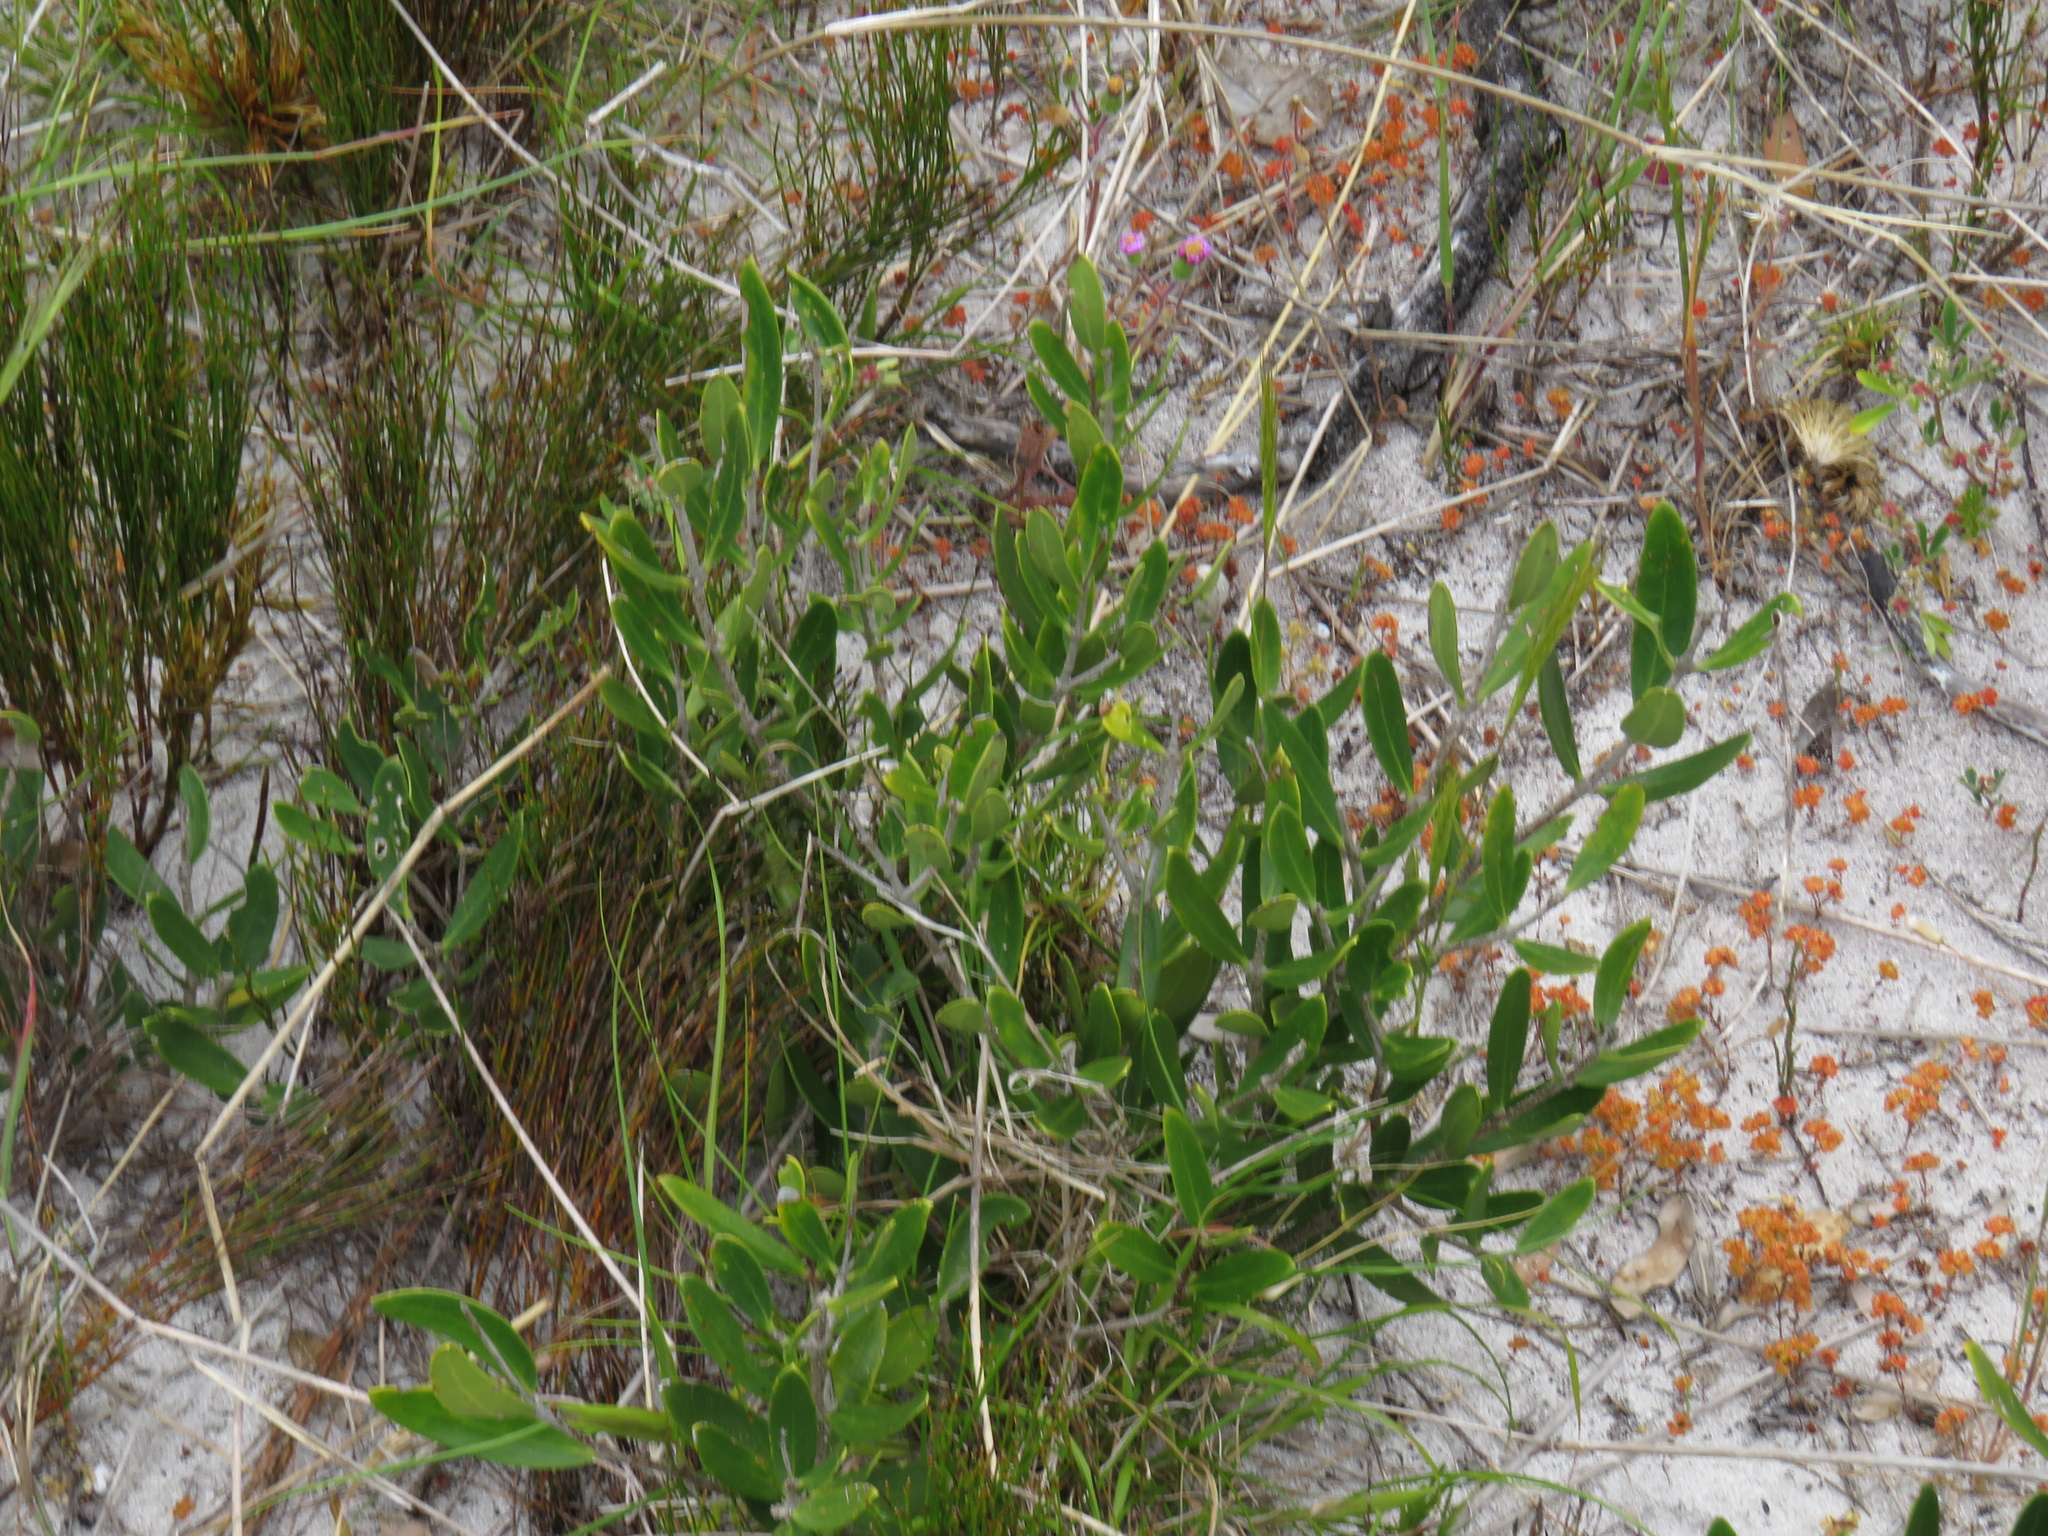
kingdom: Plantae
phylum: Tracheophyta
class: Magnoliopsida
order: Lamiales
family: Oleaceae
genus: Olea
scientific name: Olea exasperata
